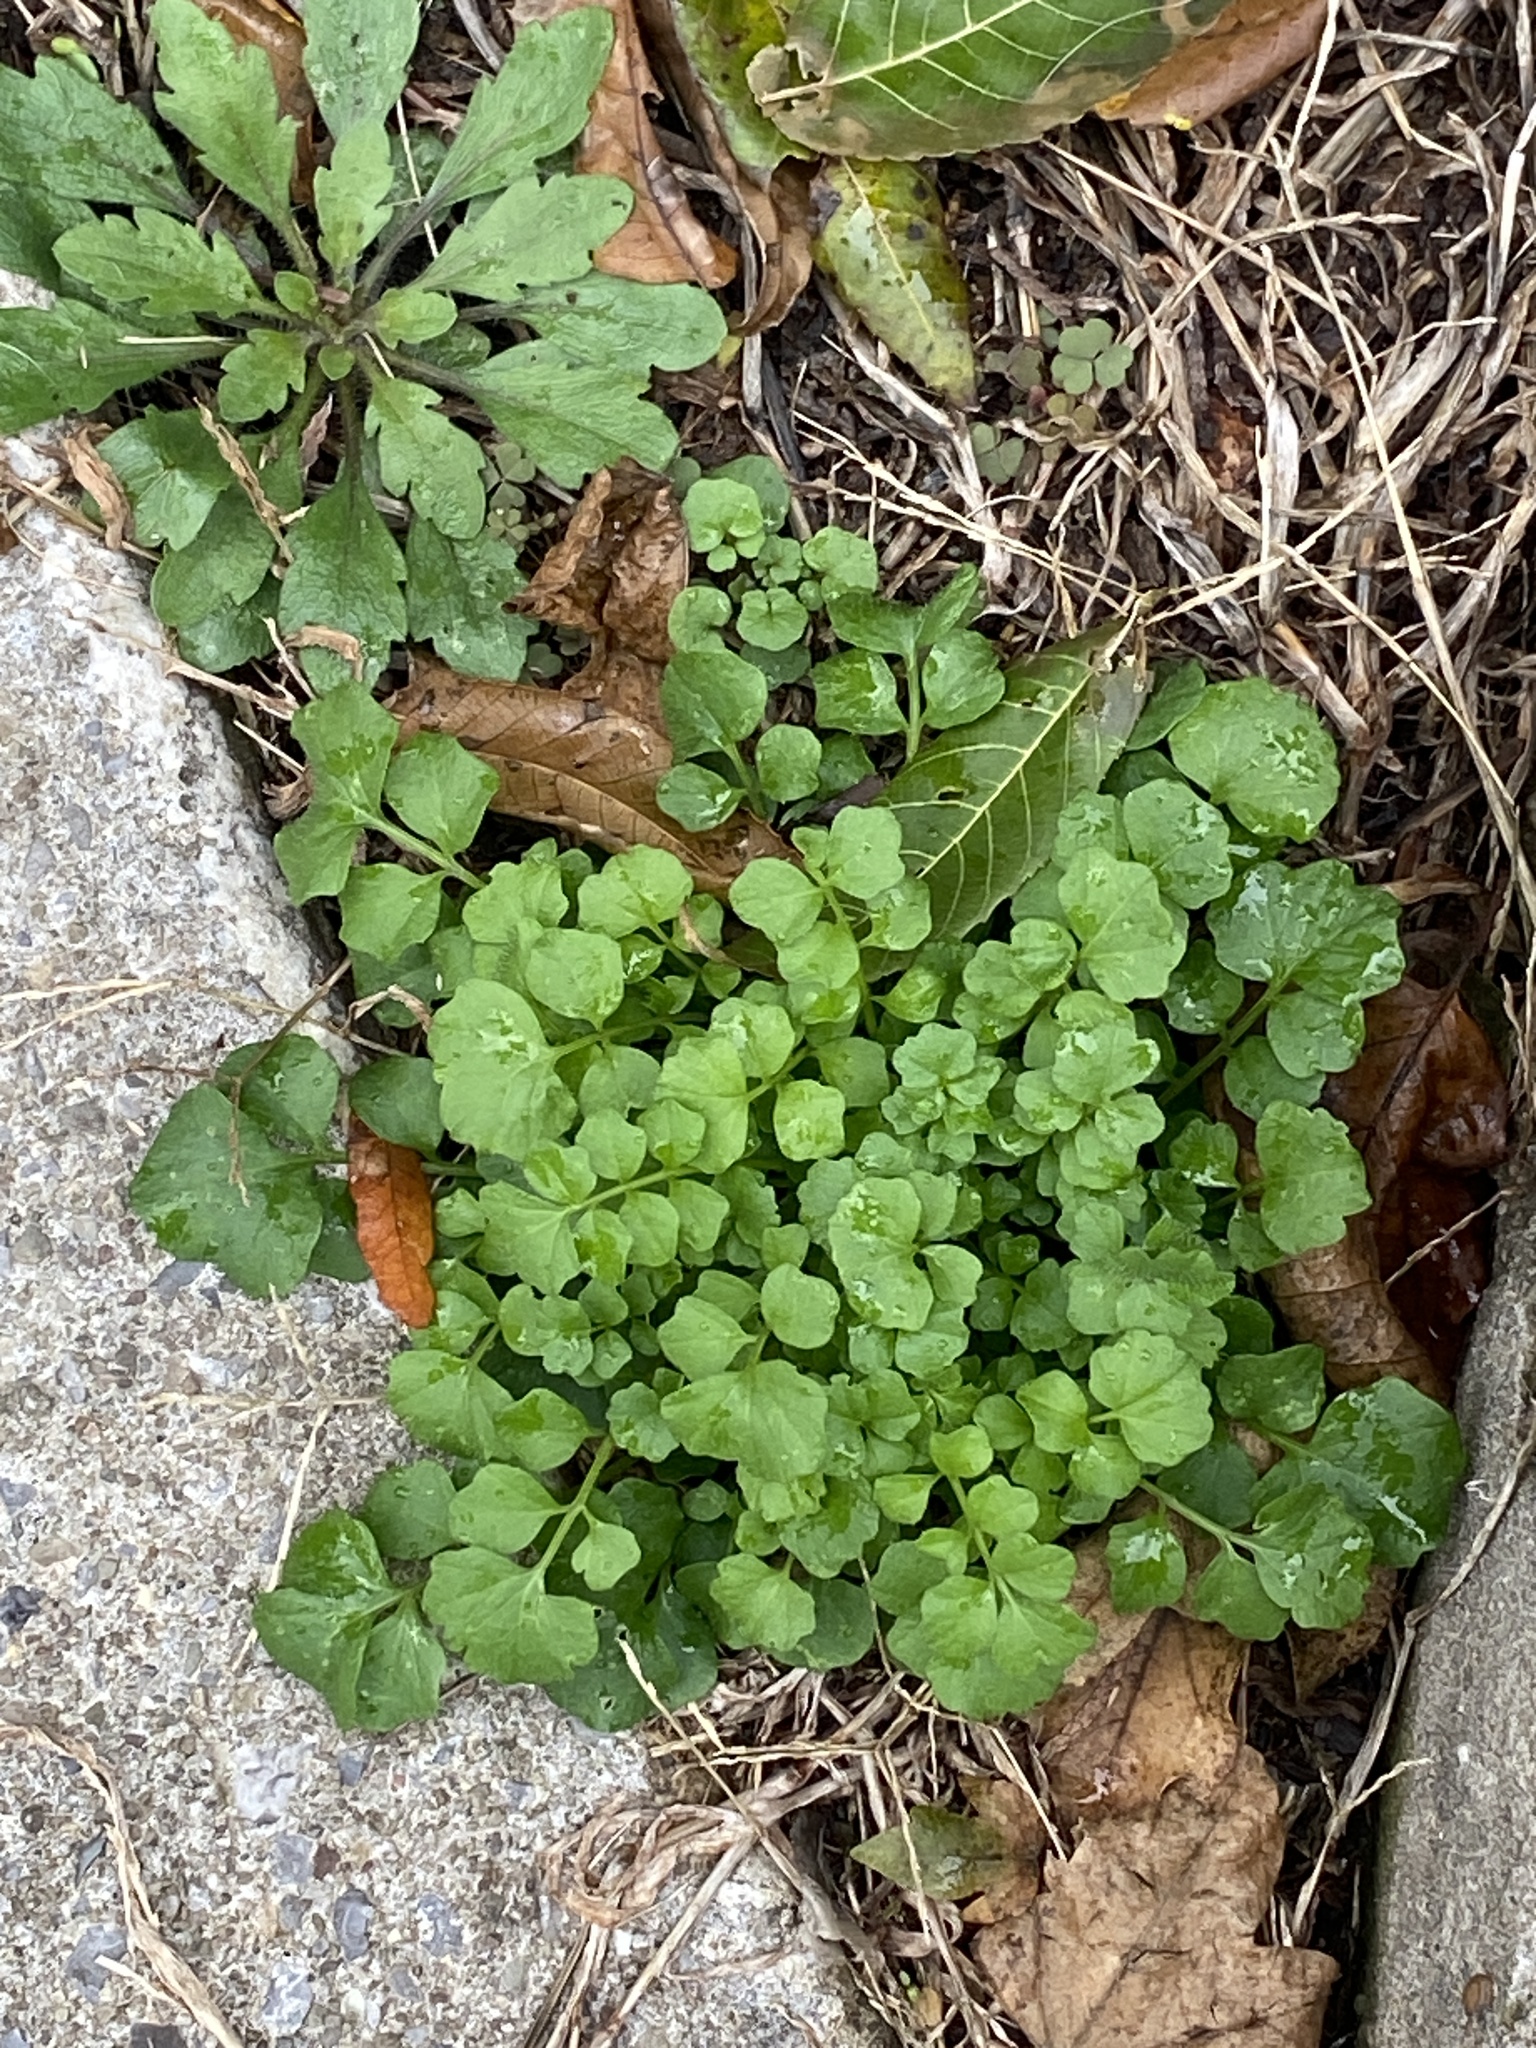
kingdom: Plantae
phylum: Tracheophyta
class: Magnoliopsida
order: Brassicales
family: Brassicaceae
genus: Cardamine
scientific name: Cardamine hirsuta
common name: Hairy bittercress
